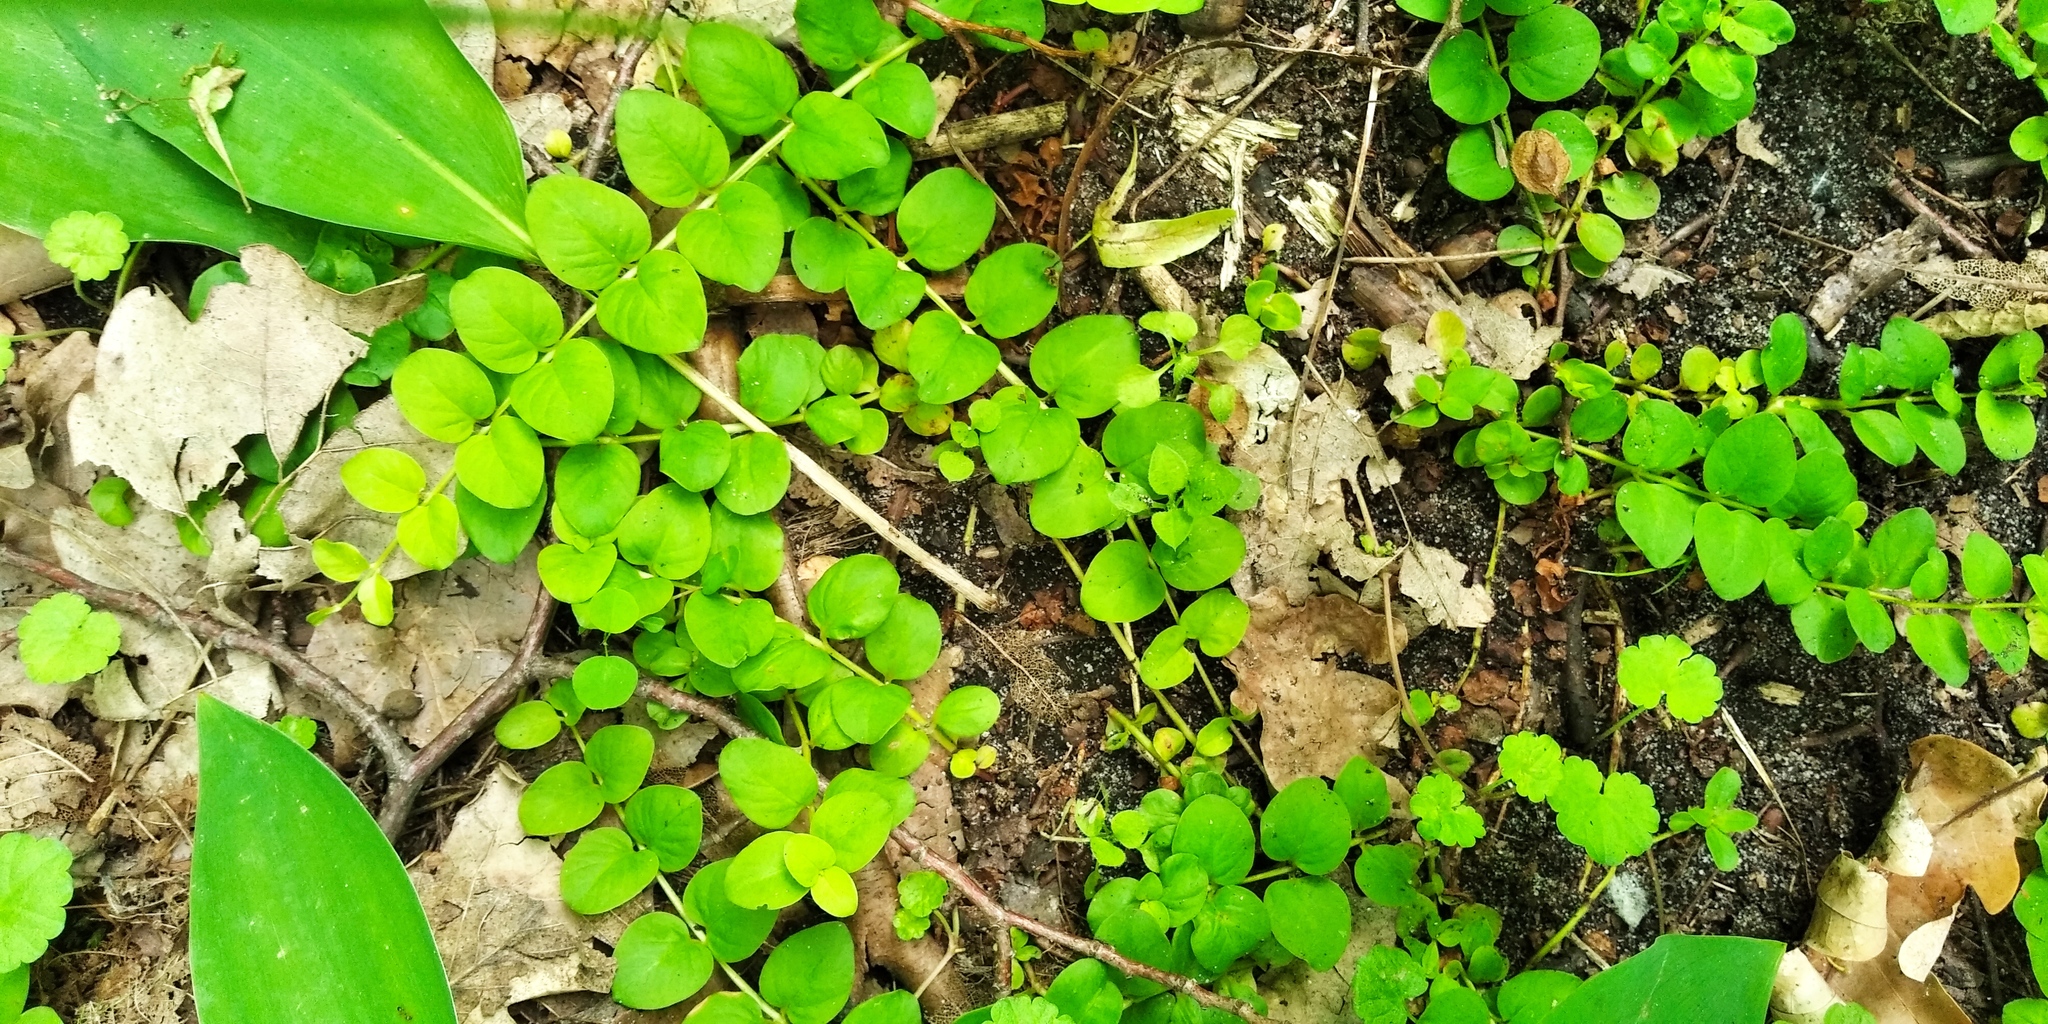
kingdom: Plantae
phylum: Tracheophyta
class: Magnoliopsida
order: Ericales
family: Primulaceae
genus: Lysimachia
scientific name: Lysimachia nummularia
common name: Moneywort
